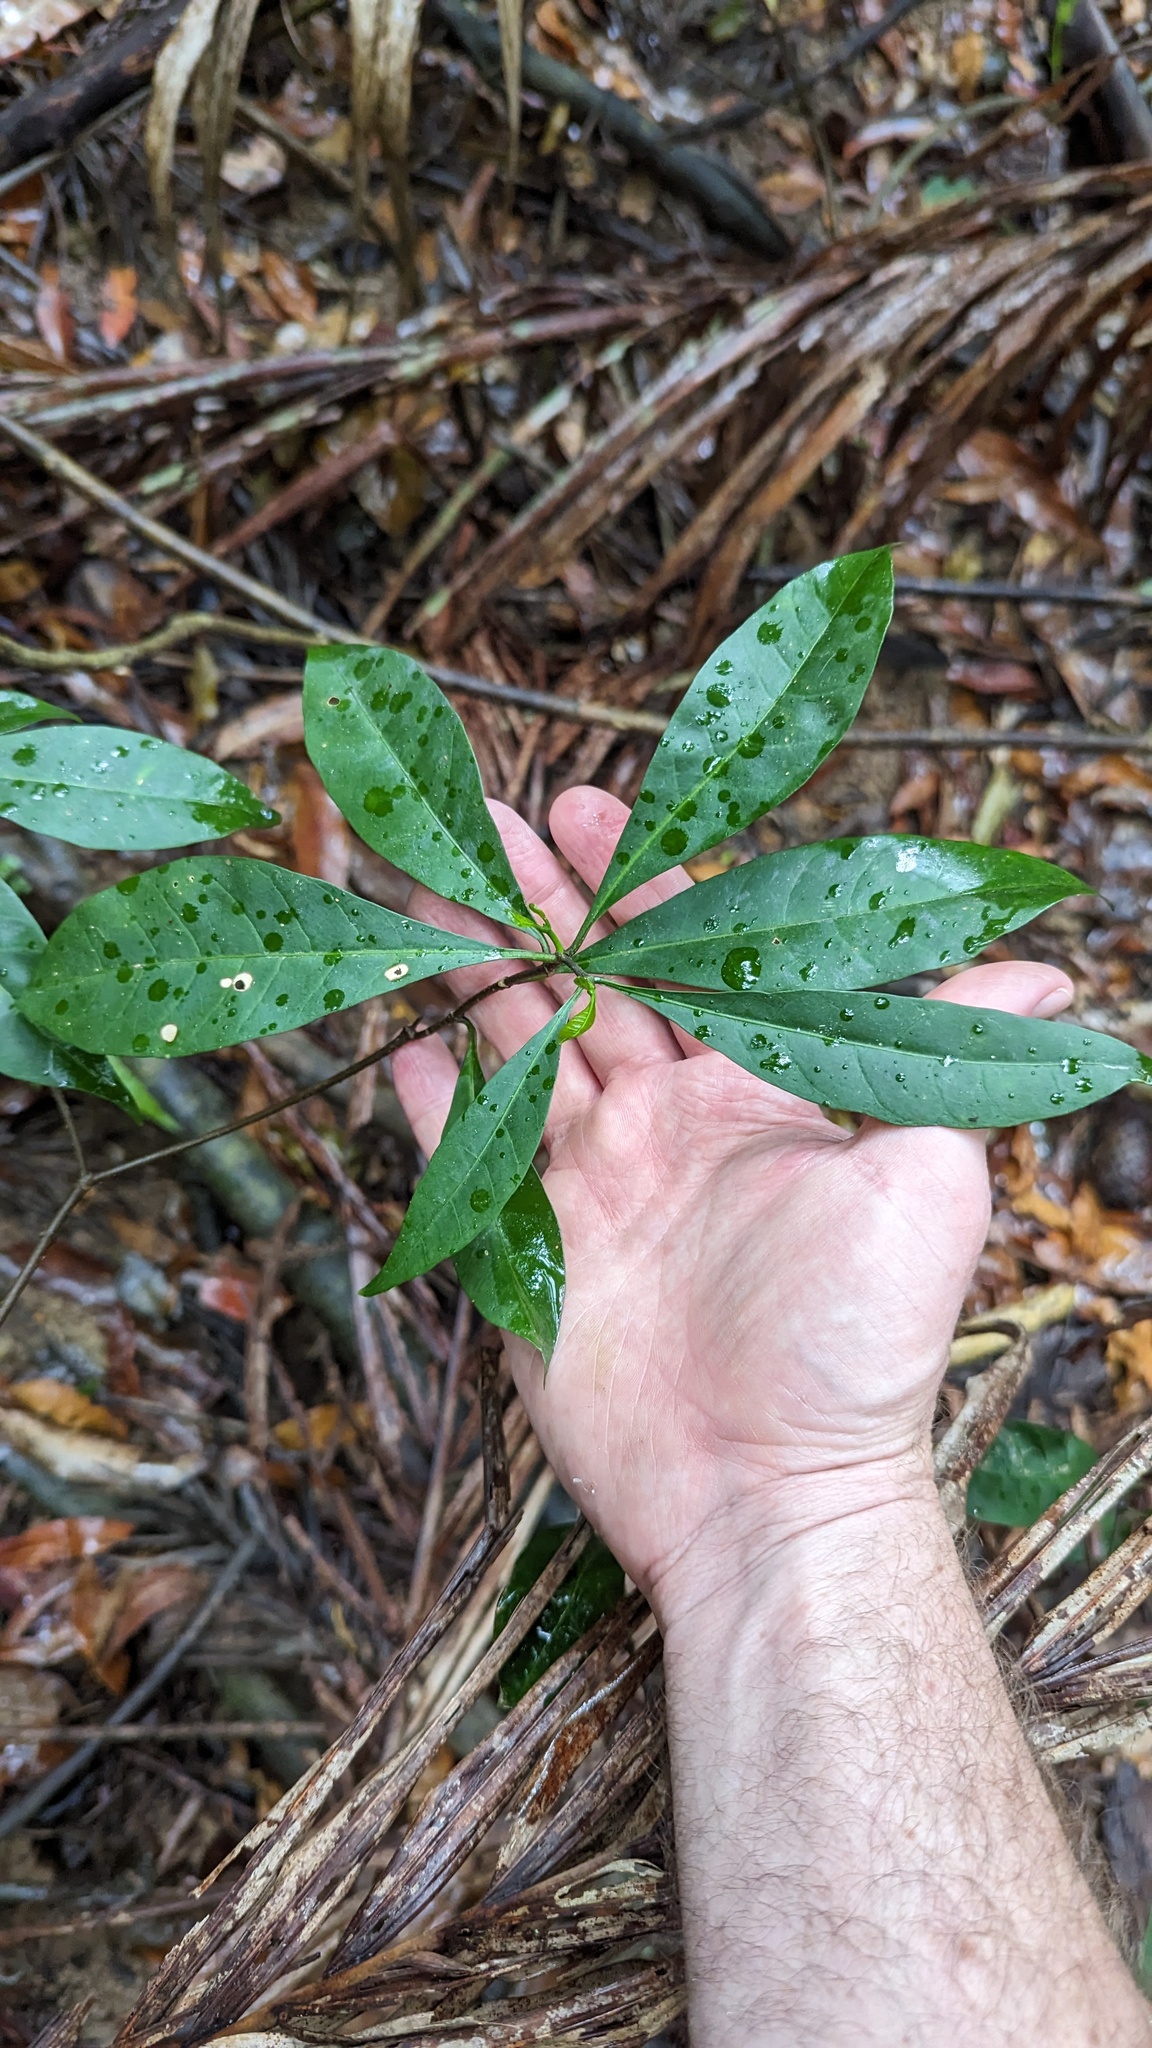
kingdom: Plantae
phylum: Tracheophyta
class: Magnoliopsida
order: Gentianales
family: Apocynaceae
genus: Tabernaemontana
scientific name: Tabernaemontana pandacaqui
